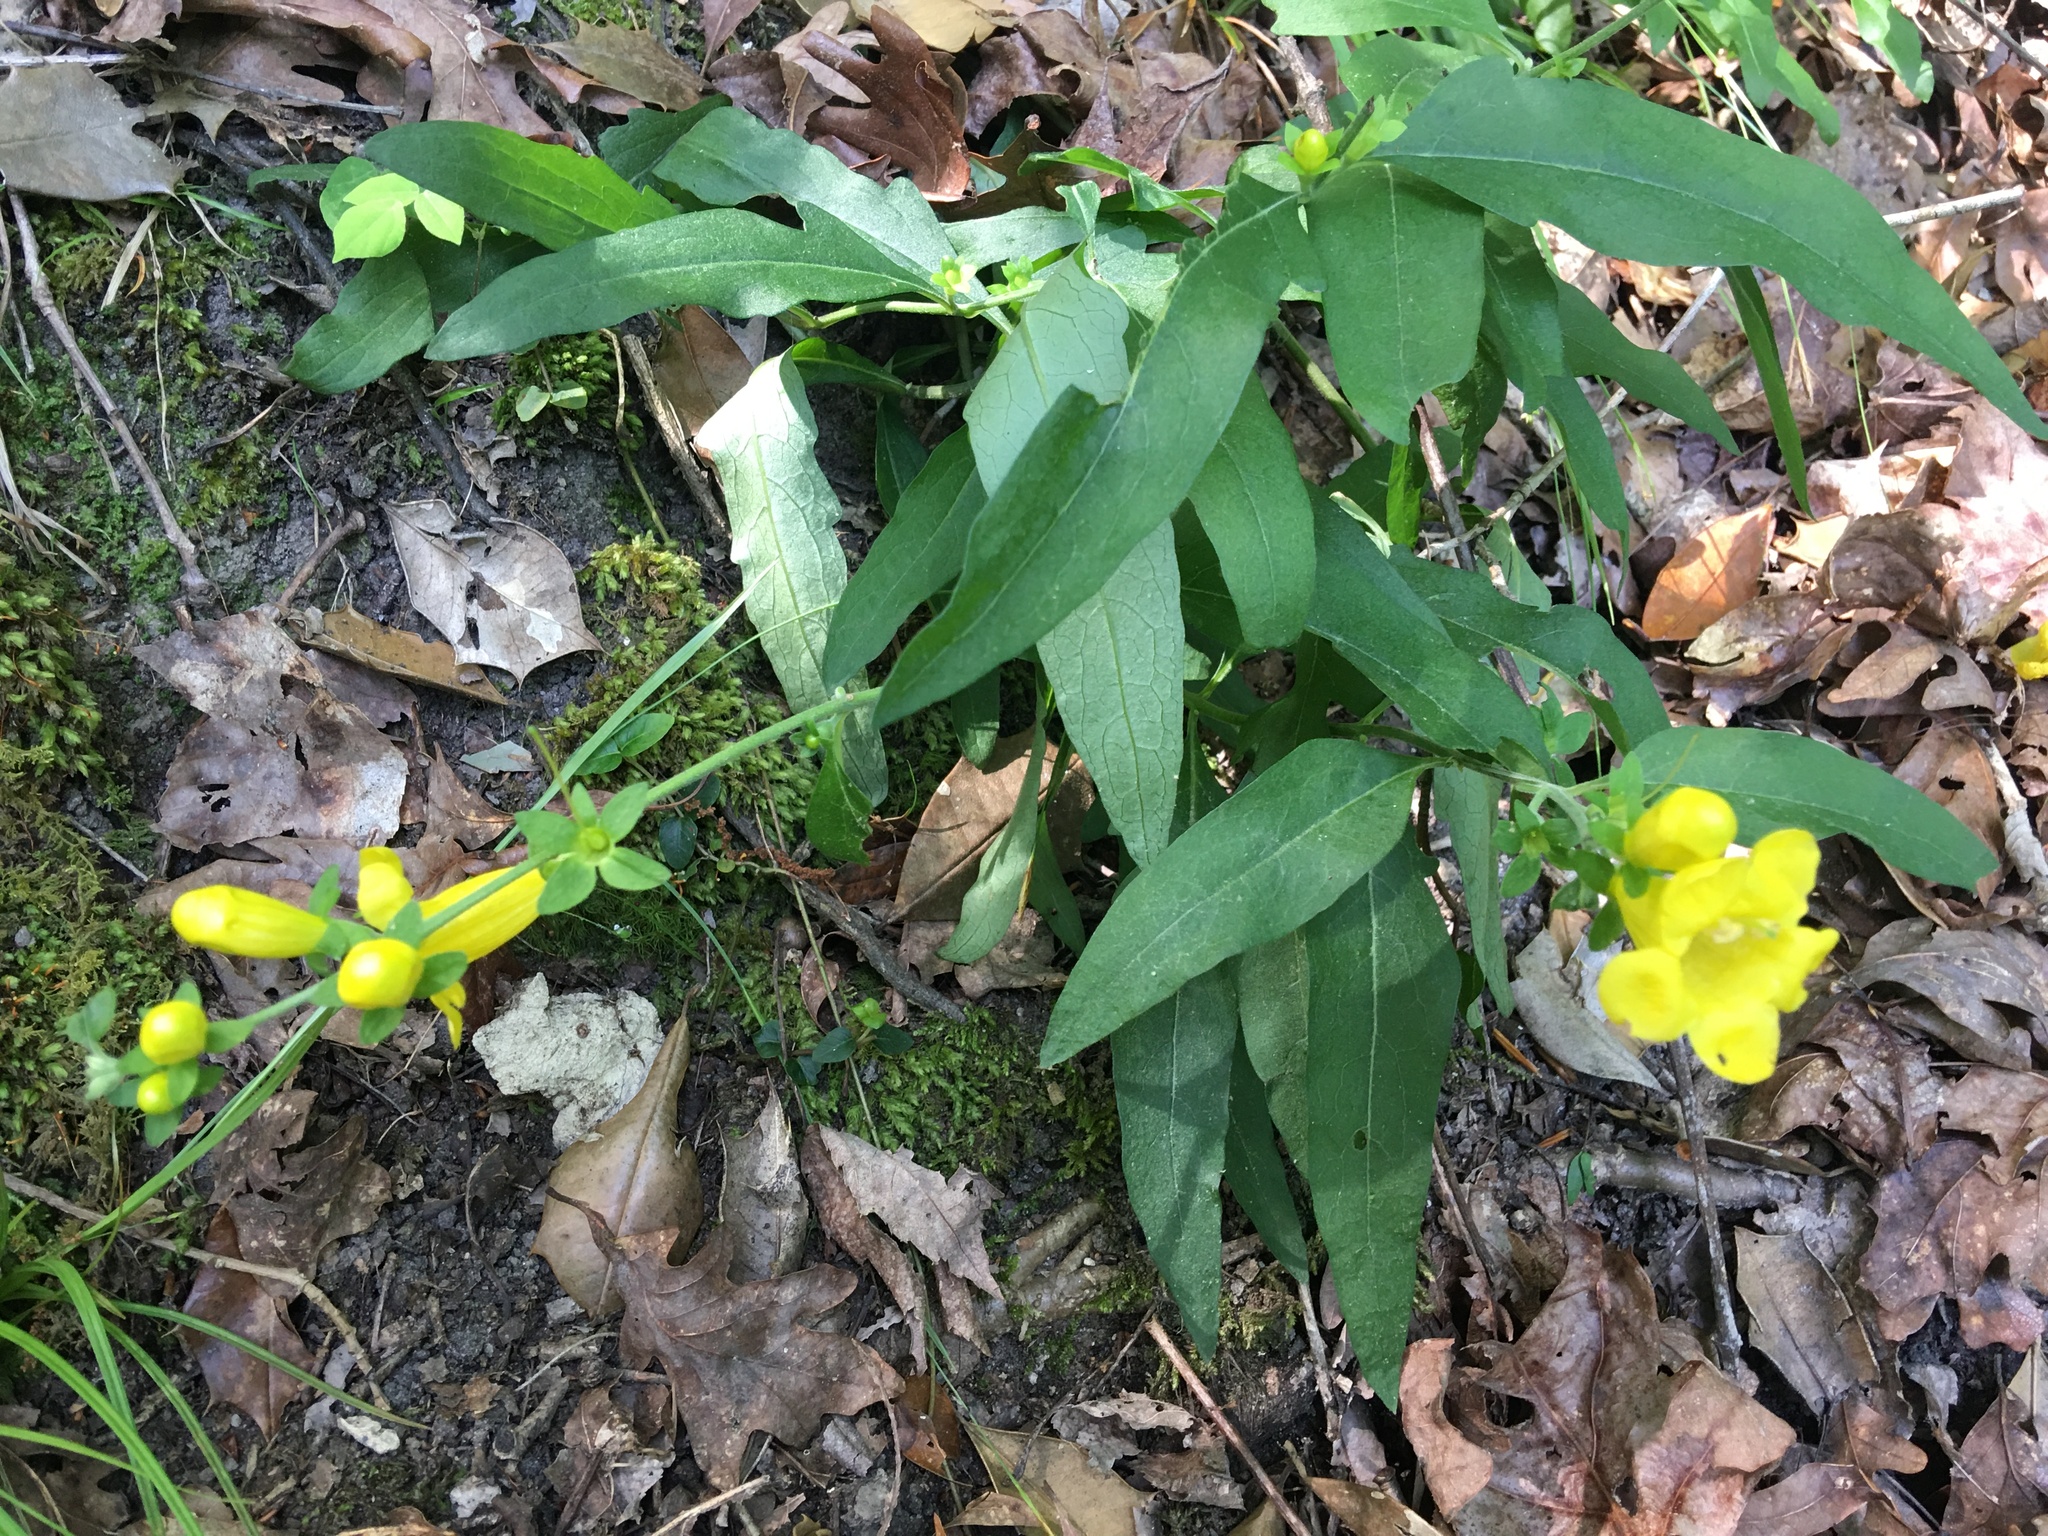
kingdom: Plantae
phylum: Tracheophyta
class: Magnoliopsida
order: Lamiales
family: Orobanchaceae
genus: Aureolaria
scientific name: Aureolaria virginica
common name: Downy false foxglove
